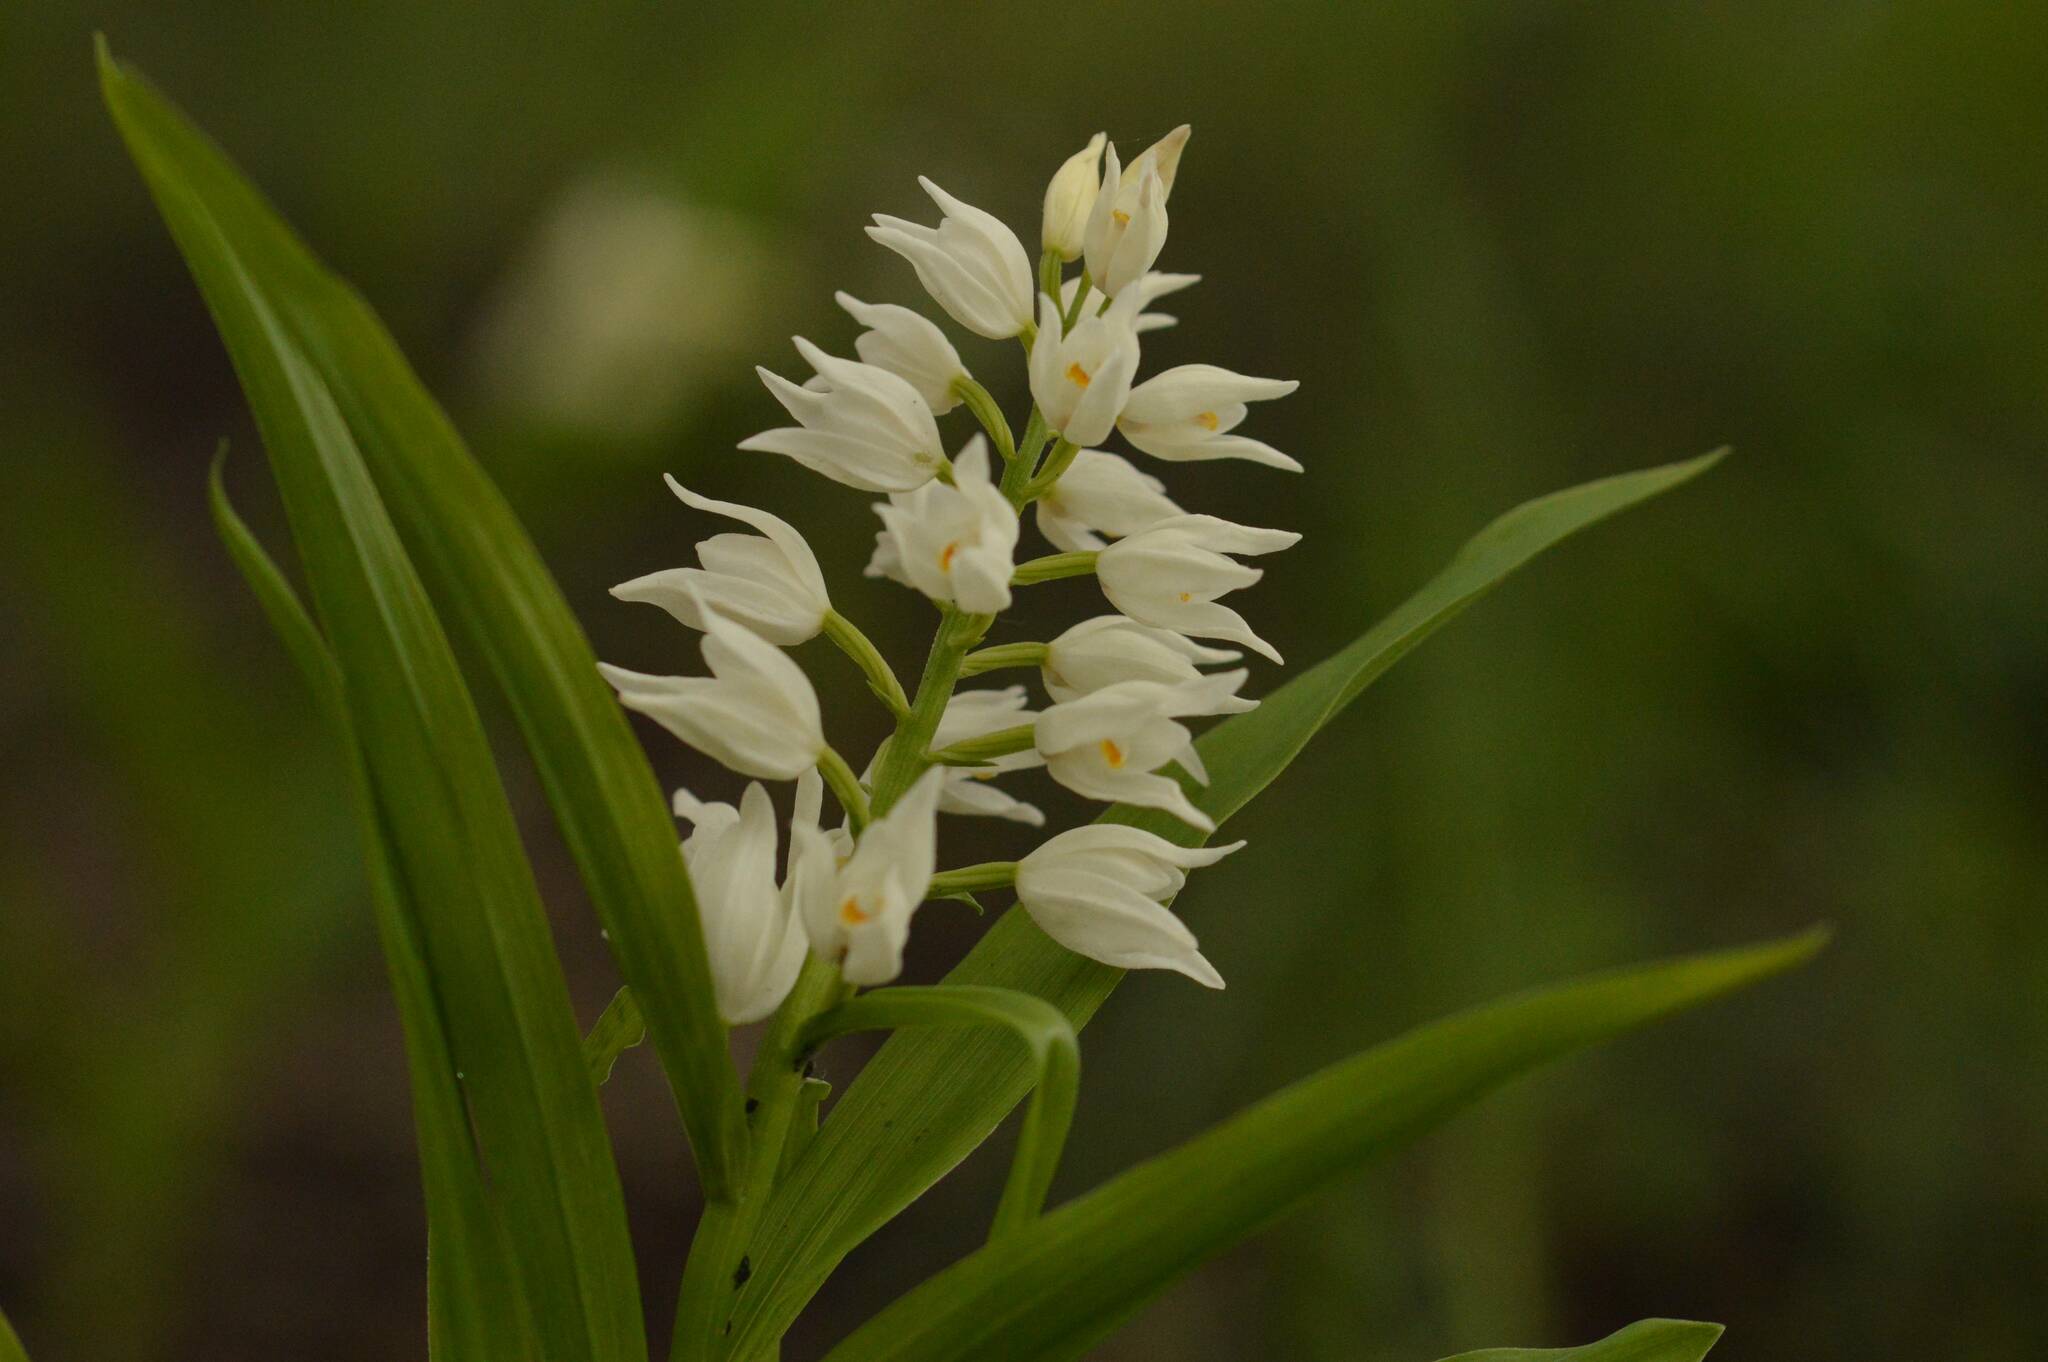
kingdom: Plantae
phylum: Tracheophyta
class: Liliopsida
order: Asparagales
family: Orchidaceae
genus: Cephalanthera
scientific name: Cephalanthera longifolia
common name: Narrow-leaved helleborine
